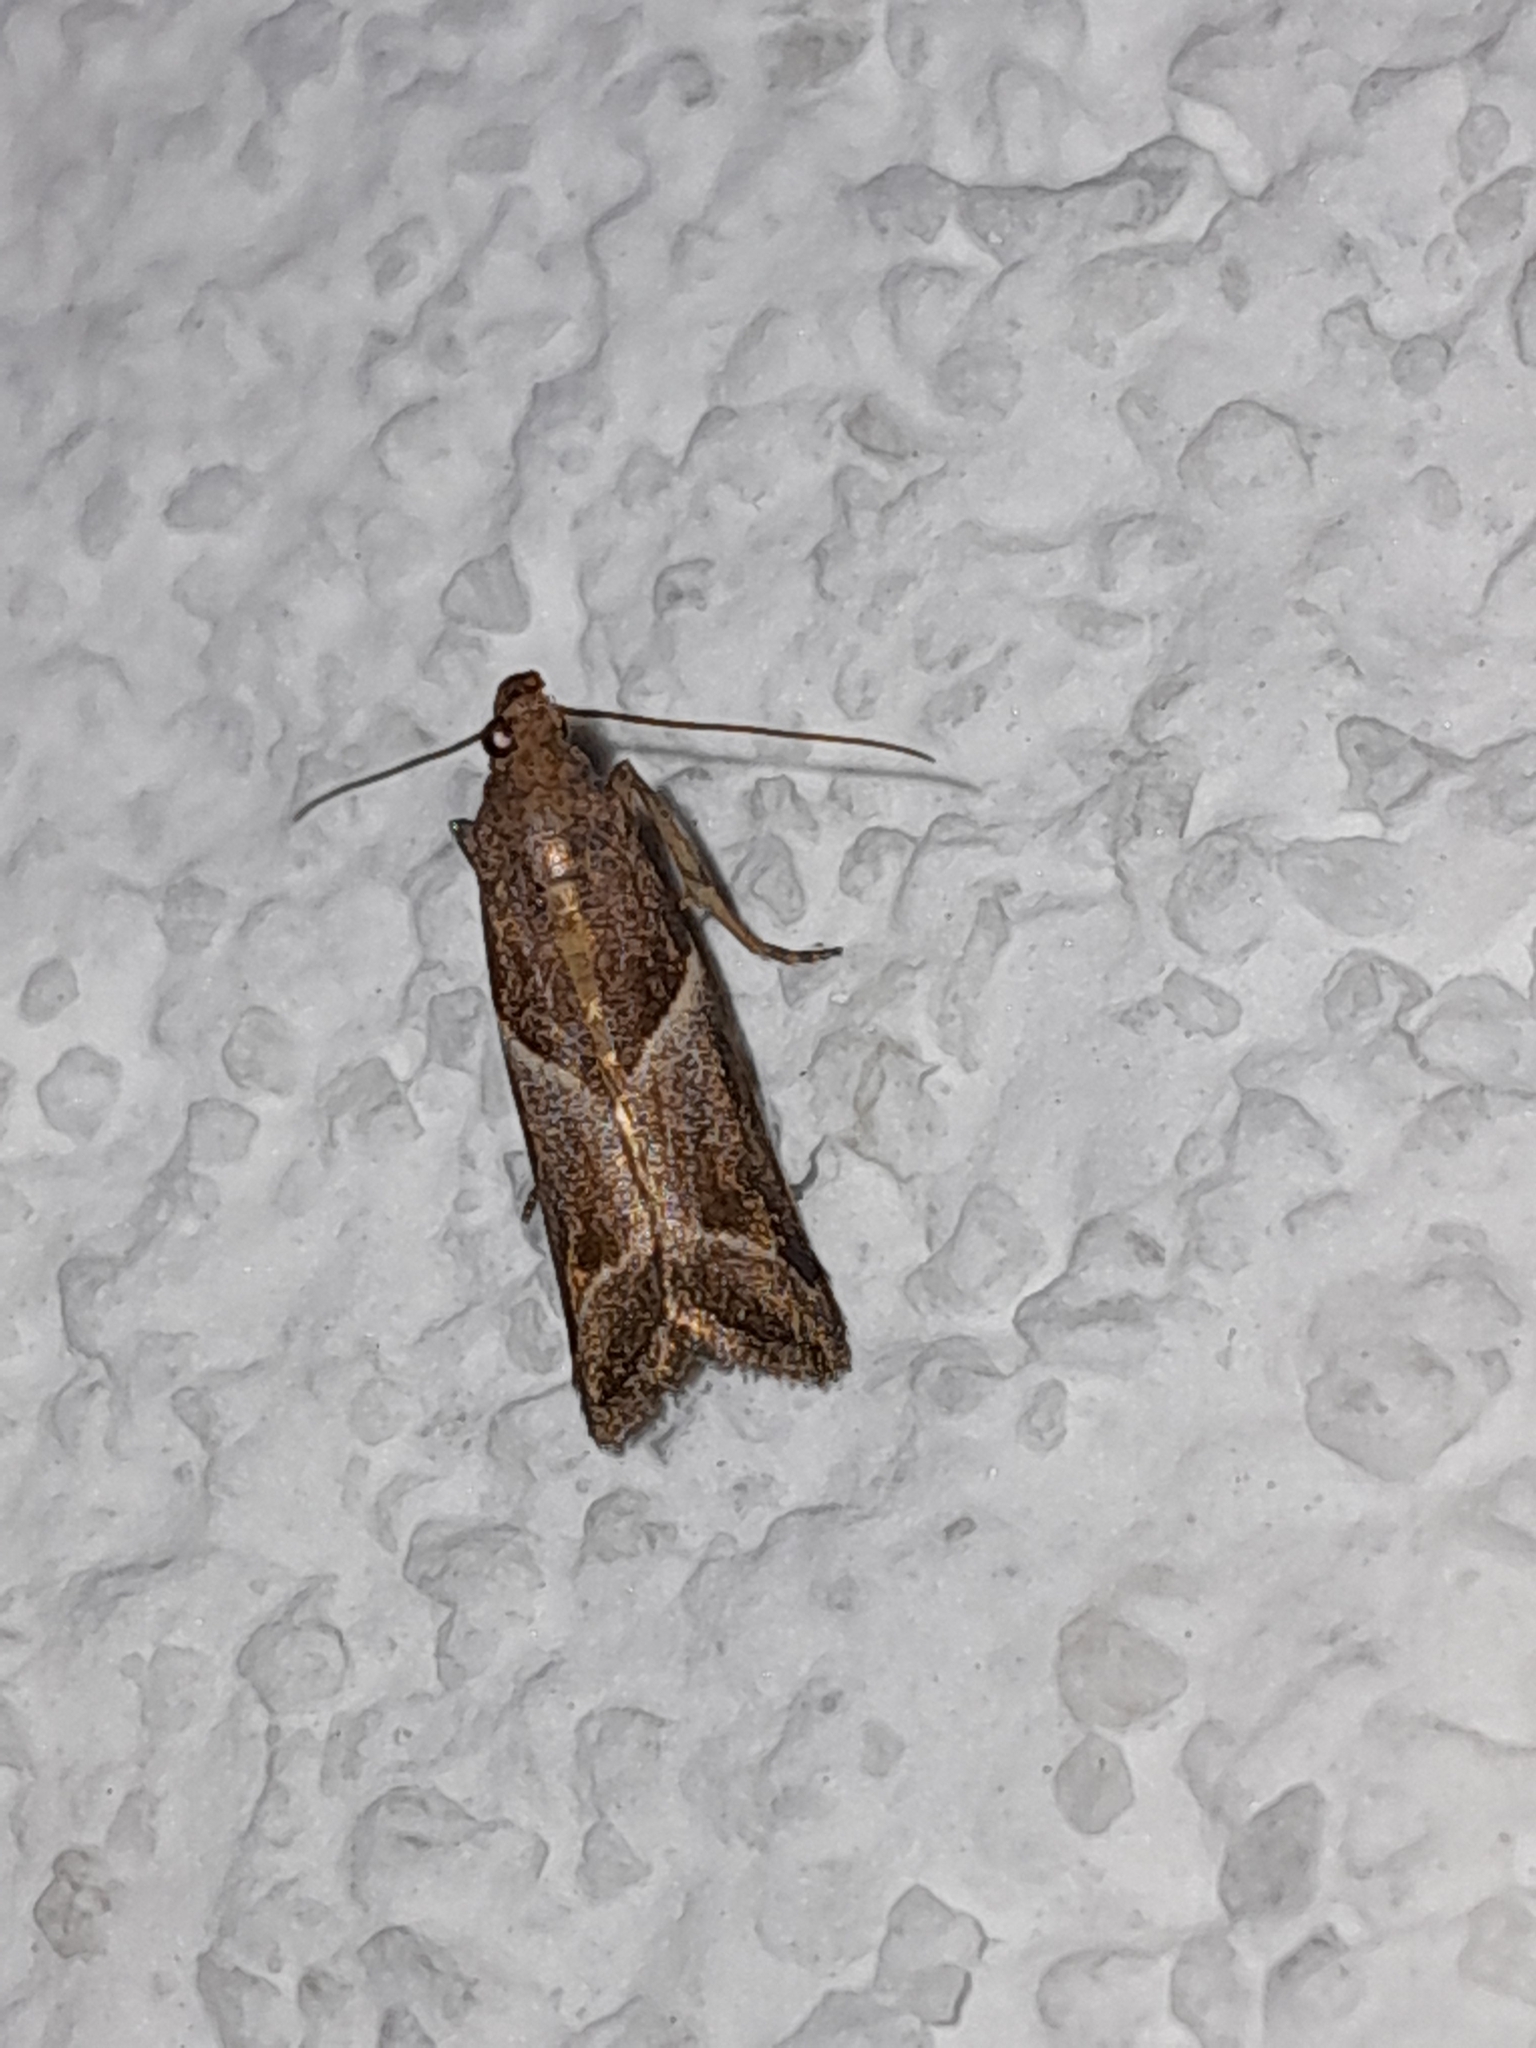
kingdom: Animalia
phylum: Arthropoda
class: Insecta
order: Lepidoptera
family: Pyralidae
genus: Nyctegretis
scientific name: Nyctegretis lineana
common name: Agate knot-horn
